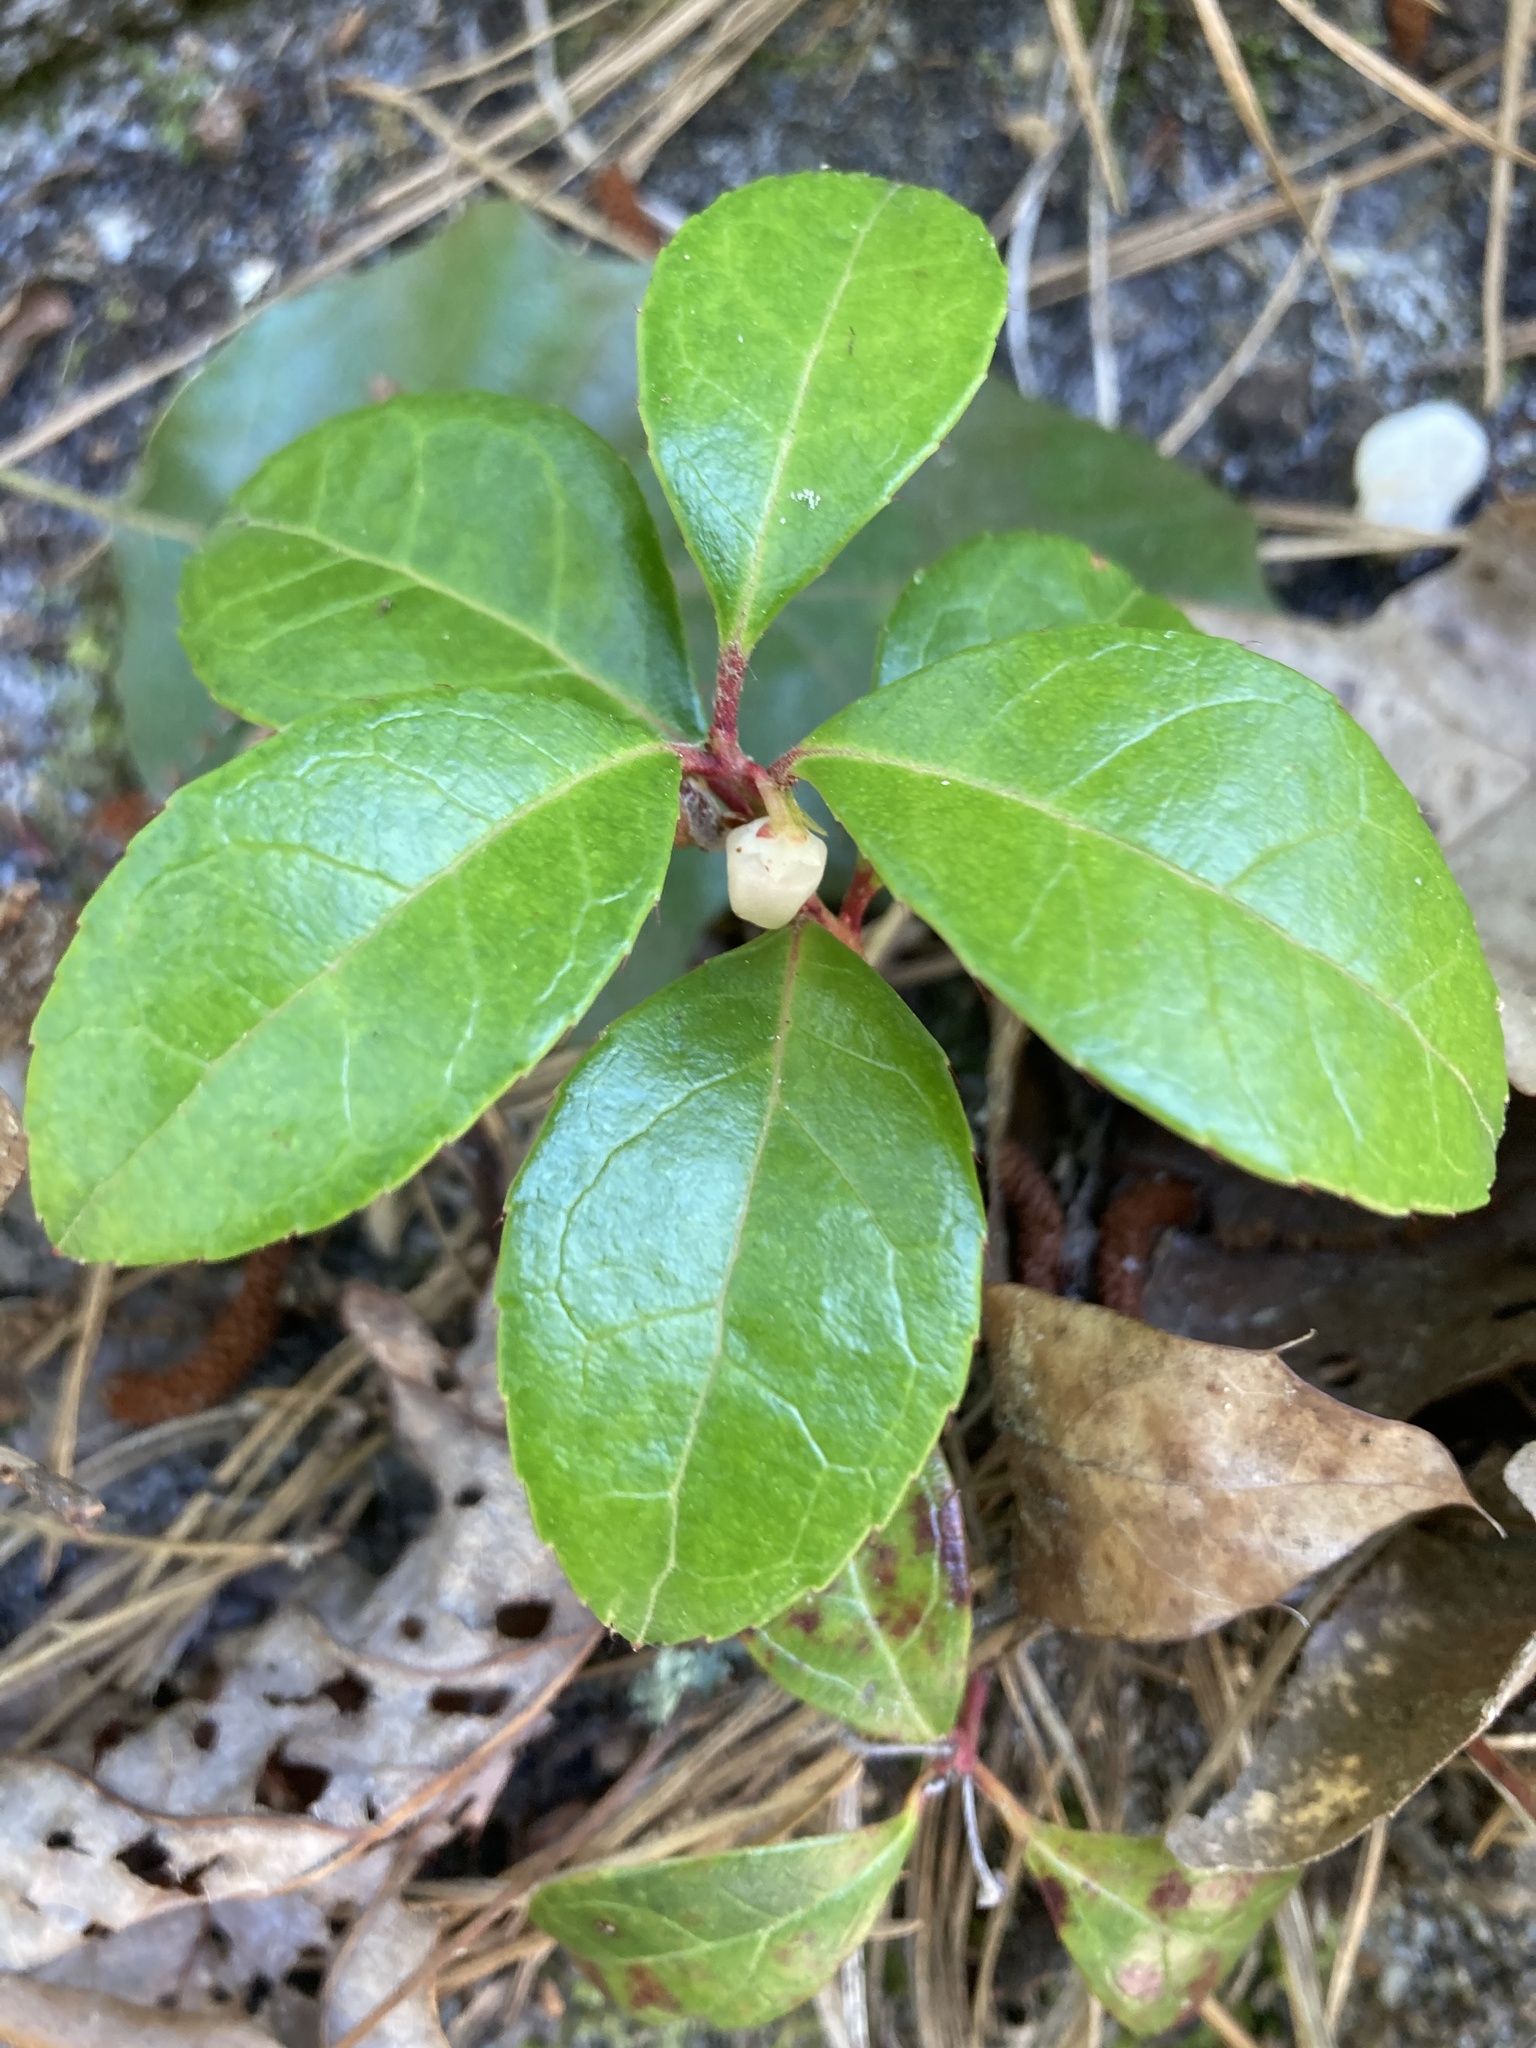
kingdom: Plantae
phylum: Tracheophyta
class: Magnoliopsida
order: Ericales
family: Ericaceae
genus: Gaultheria
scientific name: Gaultheria procumbens
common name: Checkerberry
